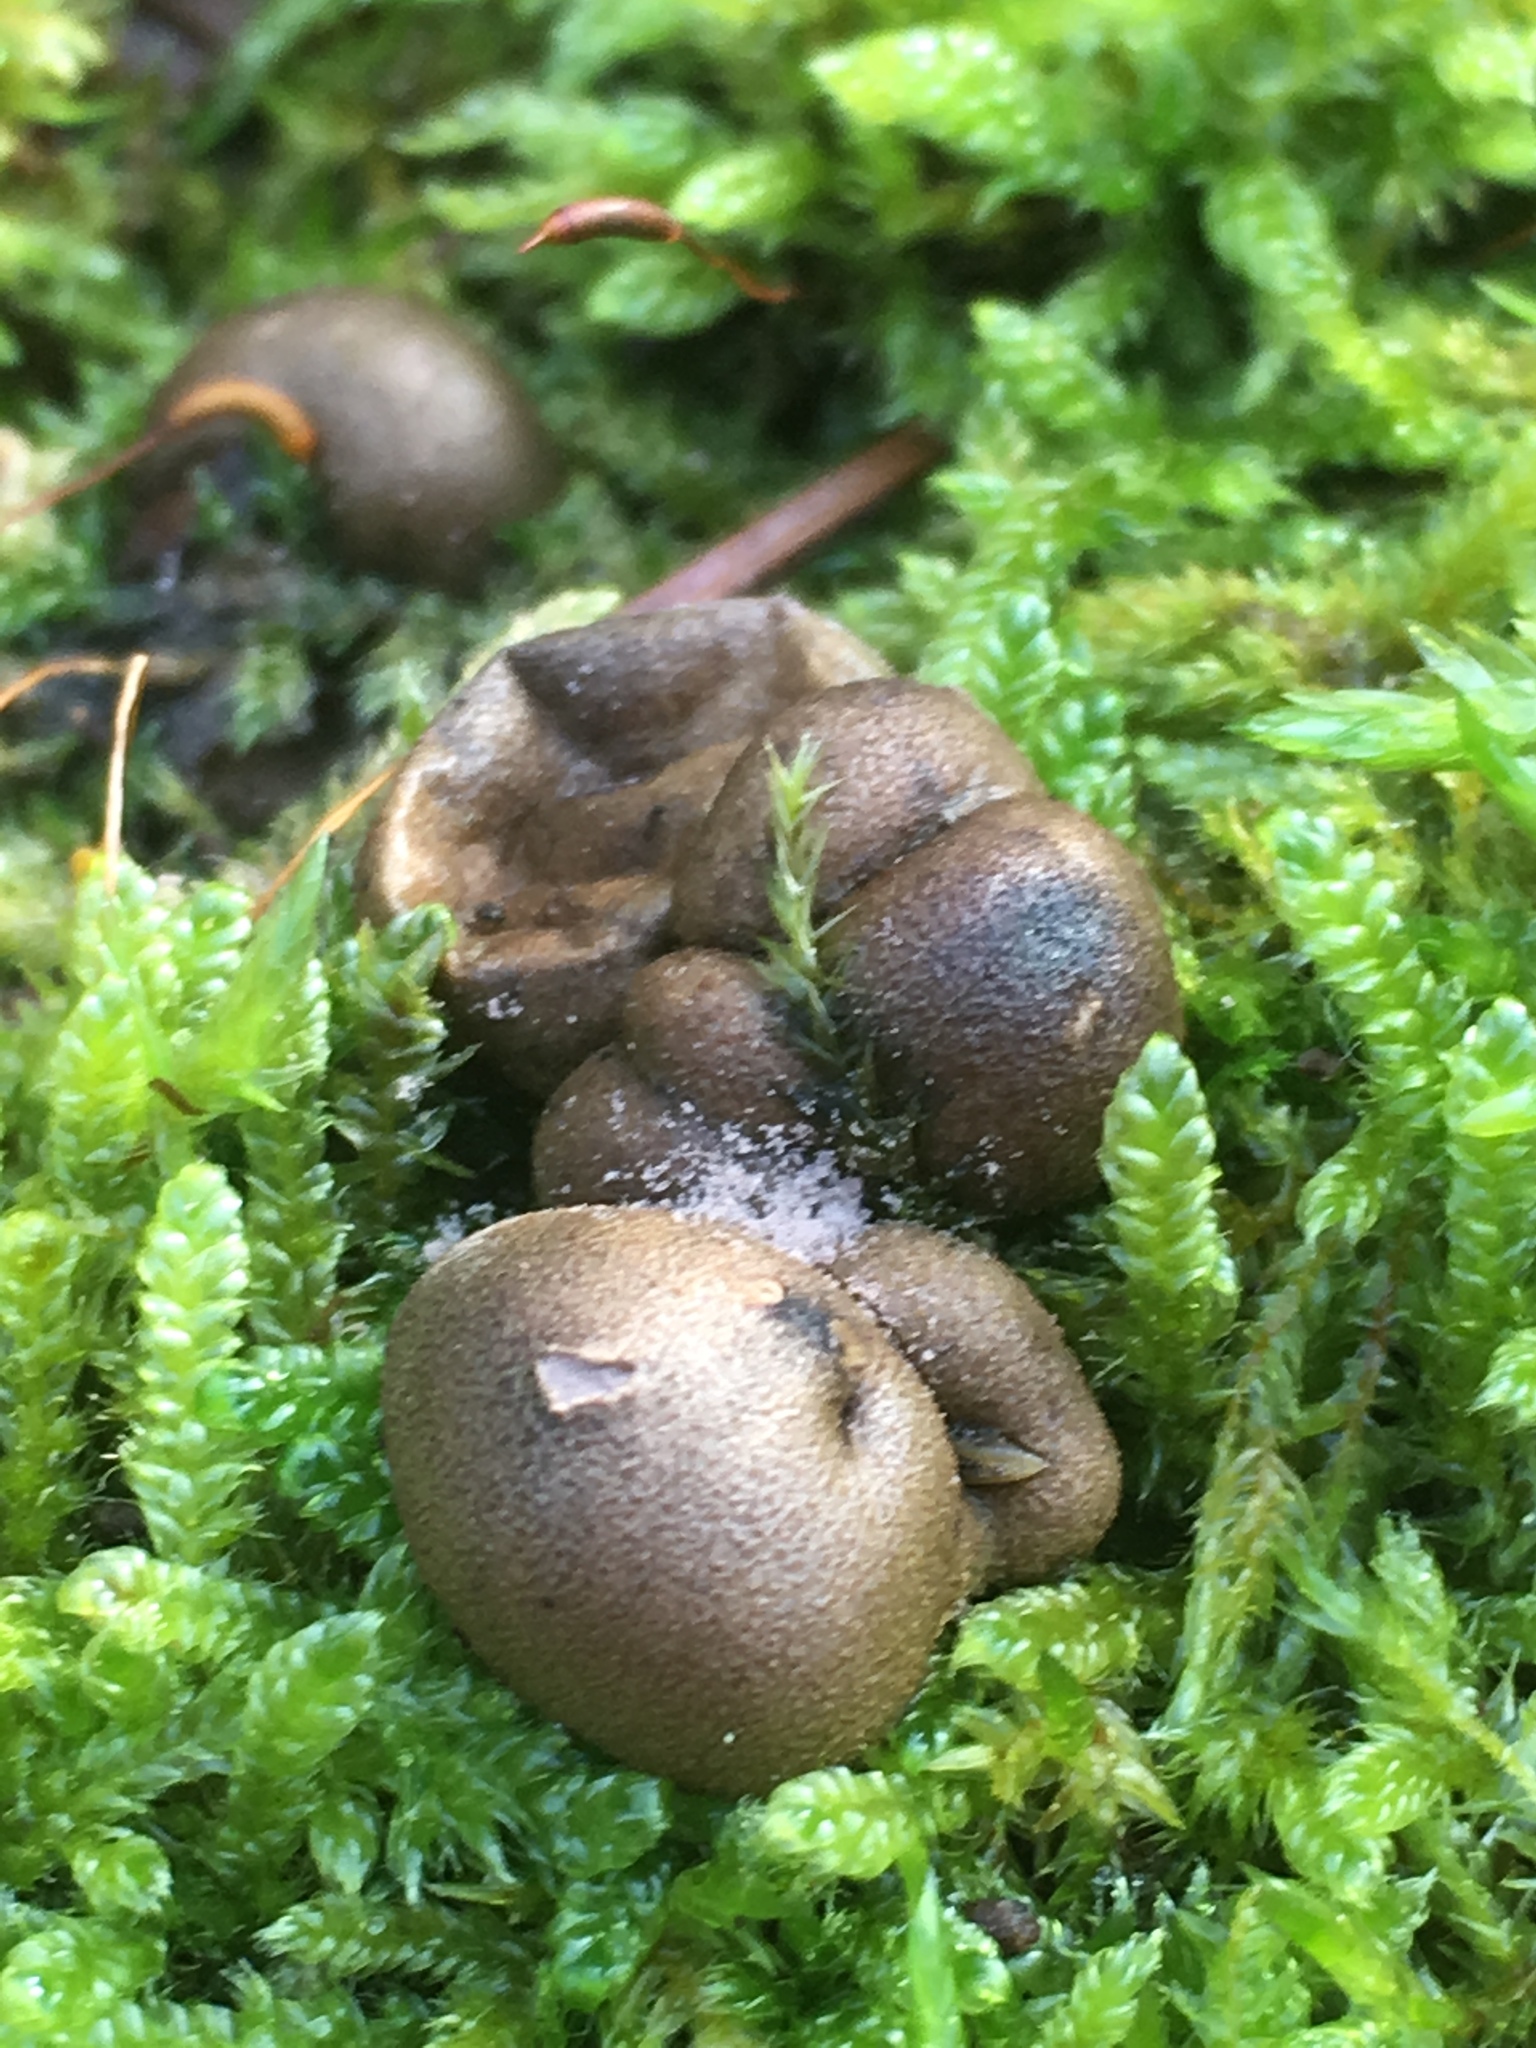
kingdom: Protozoa
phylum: Mycetozoa
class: Myxomycetes
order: Cribrariales
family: Tubiferaceae
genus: Lycogala
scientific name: Lycogala epidendrum
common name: Wolf's milk
